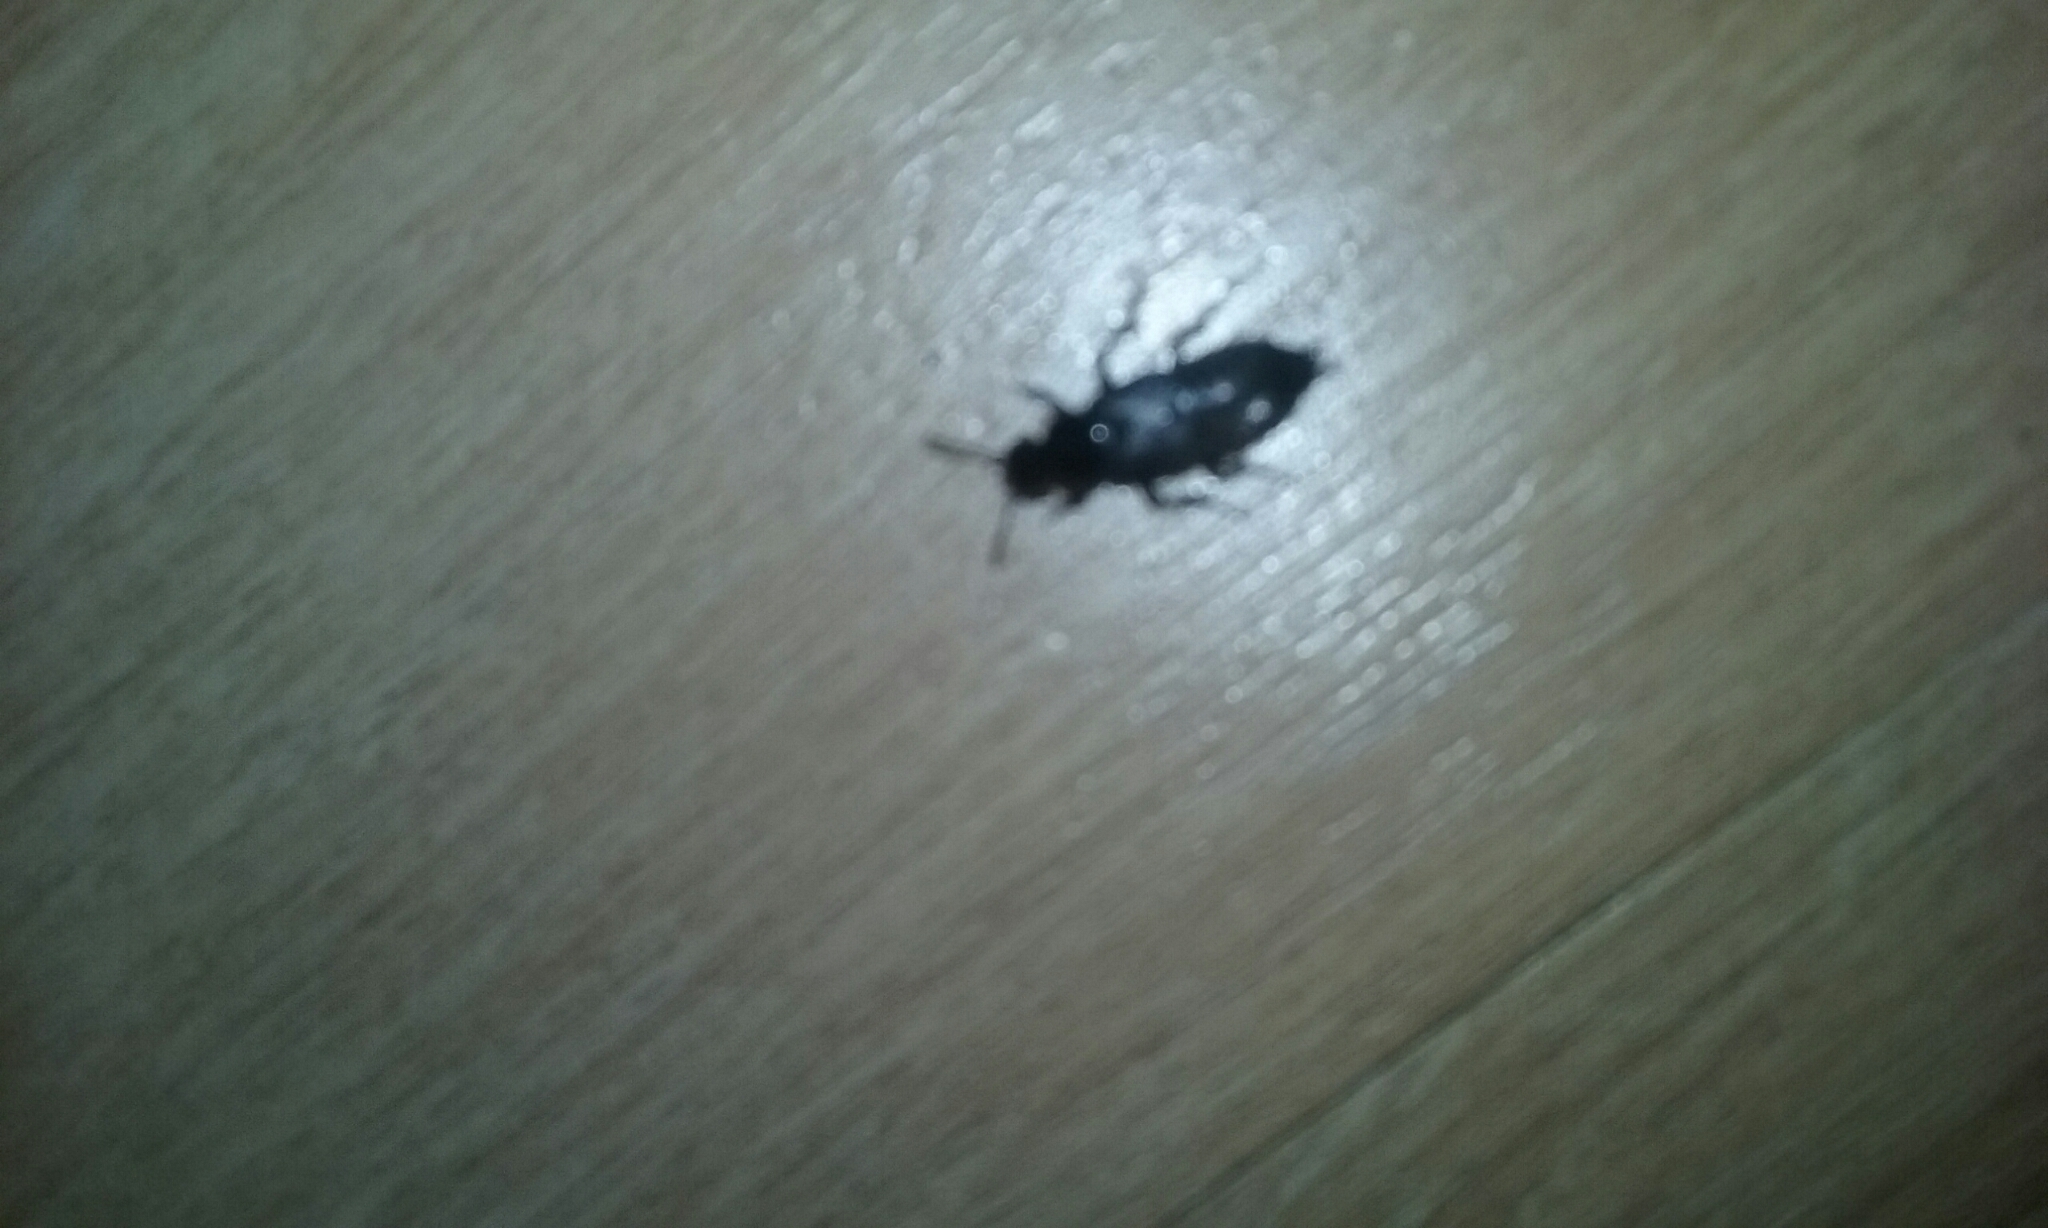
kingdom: Animalia
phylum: Arthropoda
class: Insecta
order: Coleoptera
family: Staphylinidae
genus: Creophilus
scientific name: Creophilus oculatus
